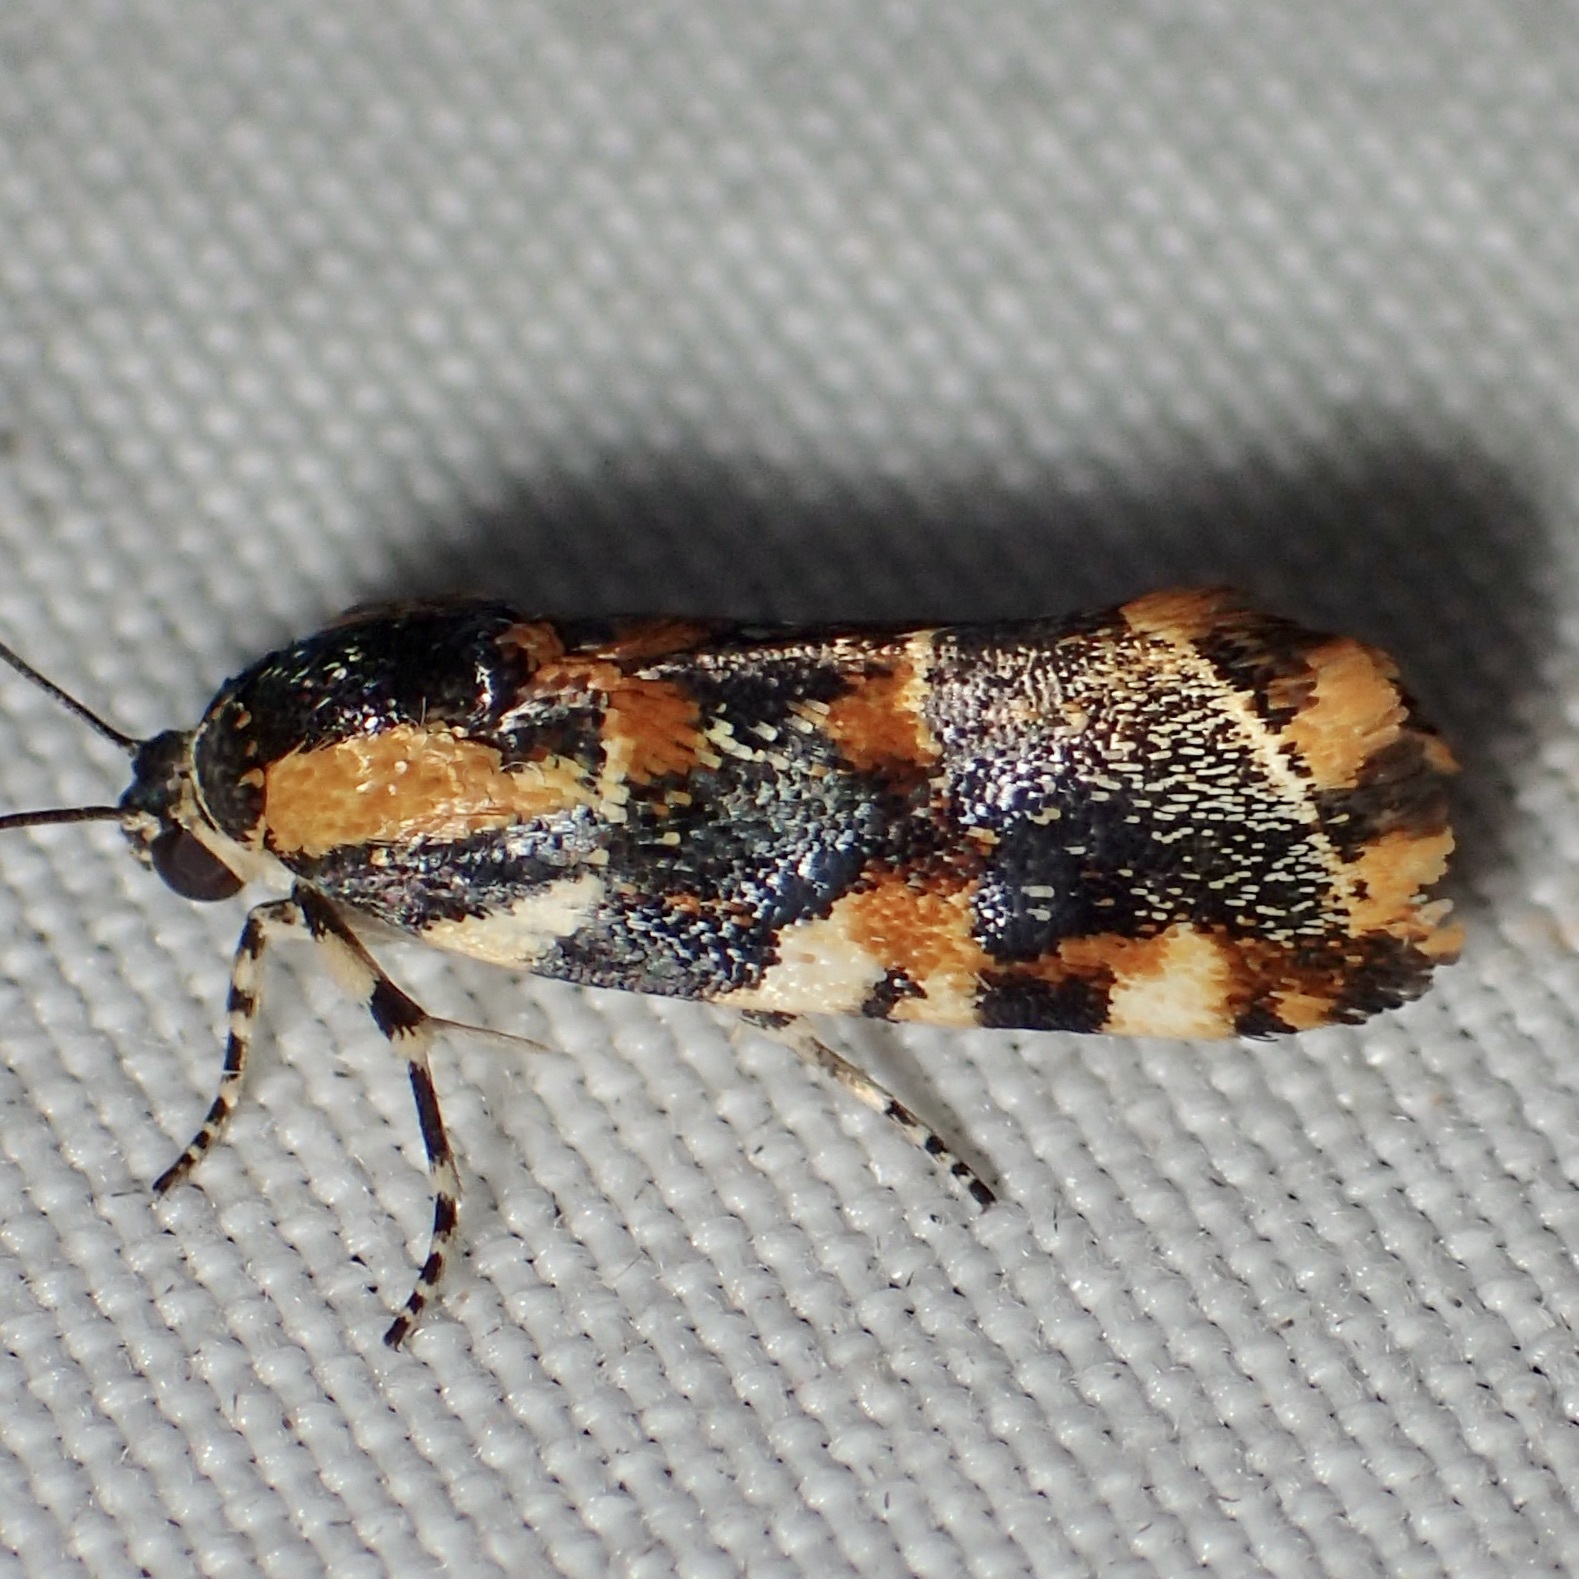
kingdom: Animalia
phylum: Arthropoda
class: Insecta
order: Lepidoptera
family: Noctuidae
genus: Spragueia
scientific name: Spragueia jaguaralis
